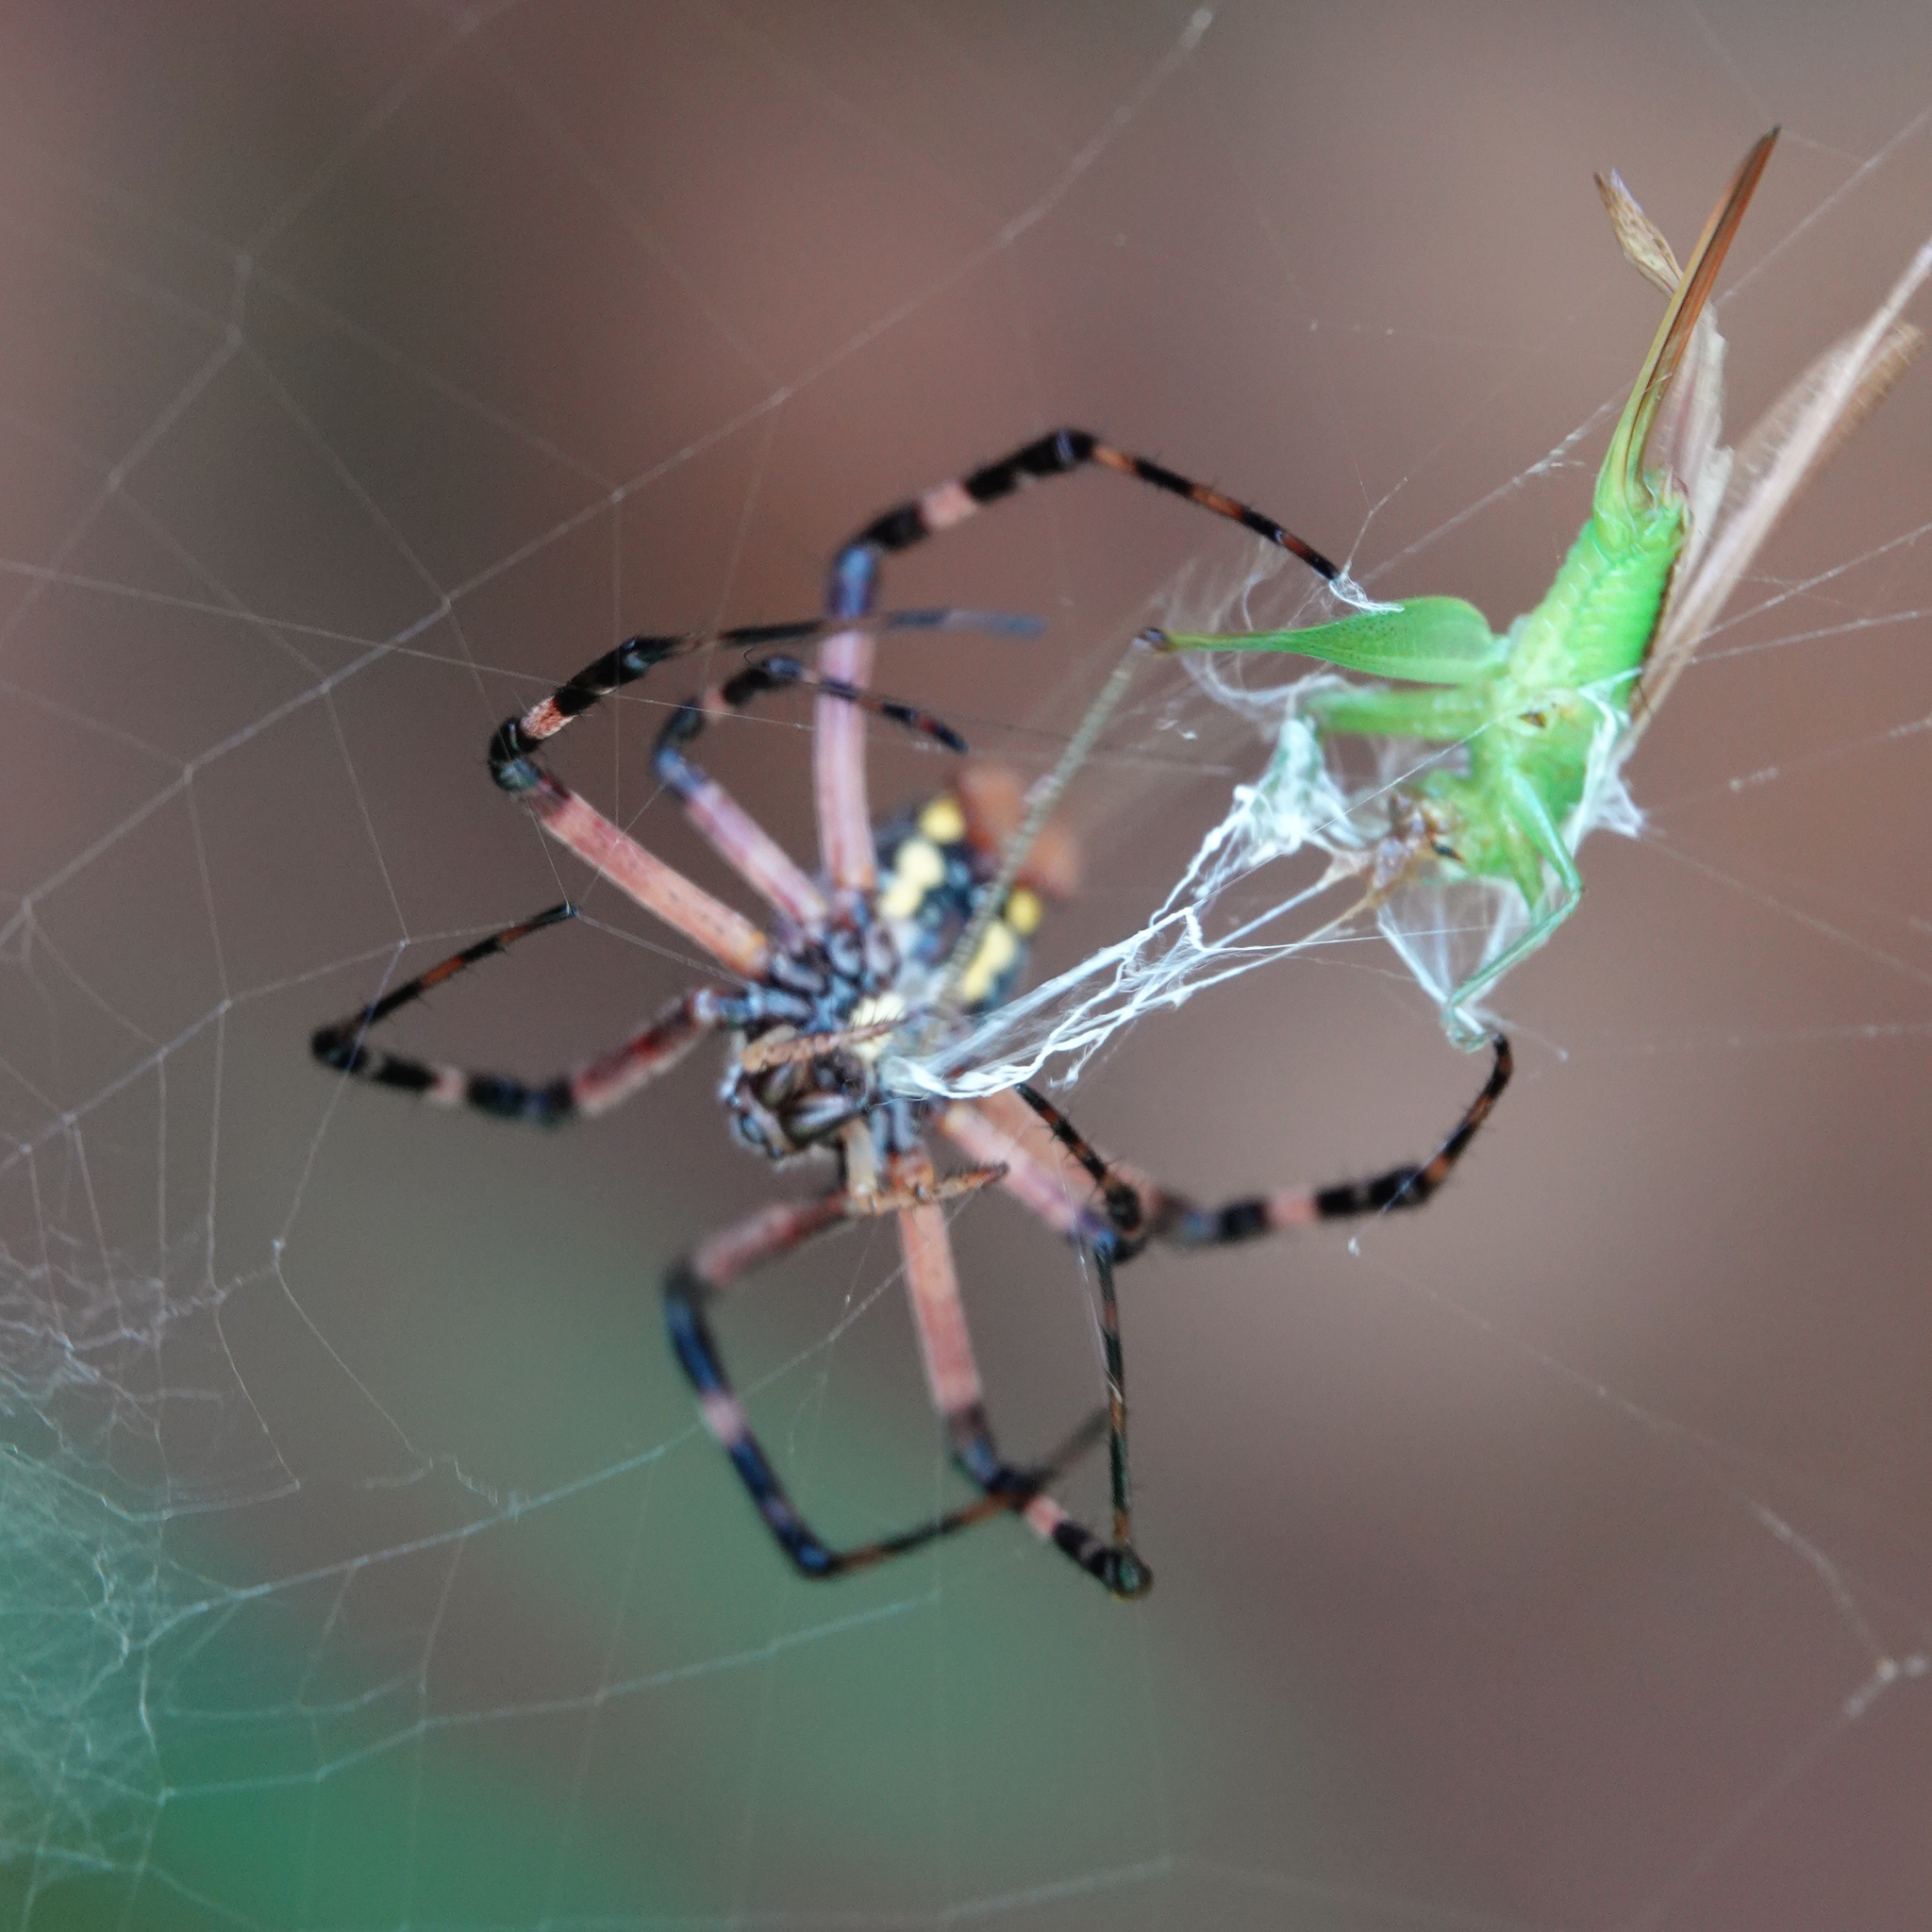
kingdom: Animalia
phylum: Arthropoda
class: Arachnida
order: Araneae
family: Araneidae
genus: Argiope
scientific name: Argiope aurantia
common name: Orb weavers
